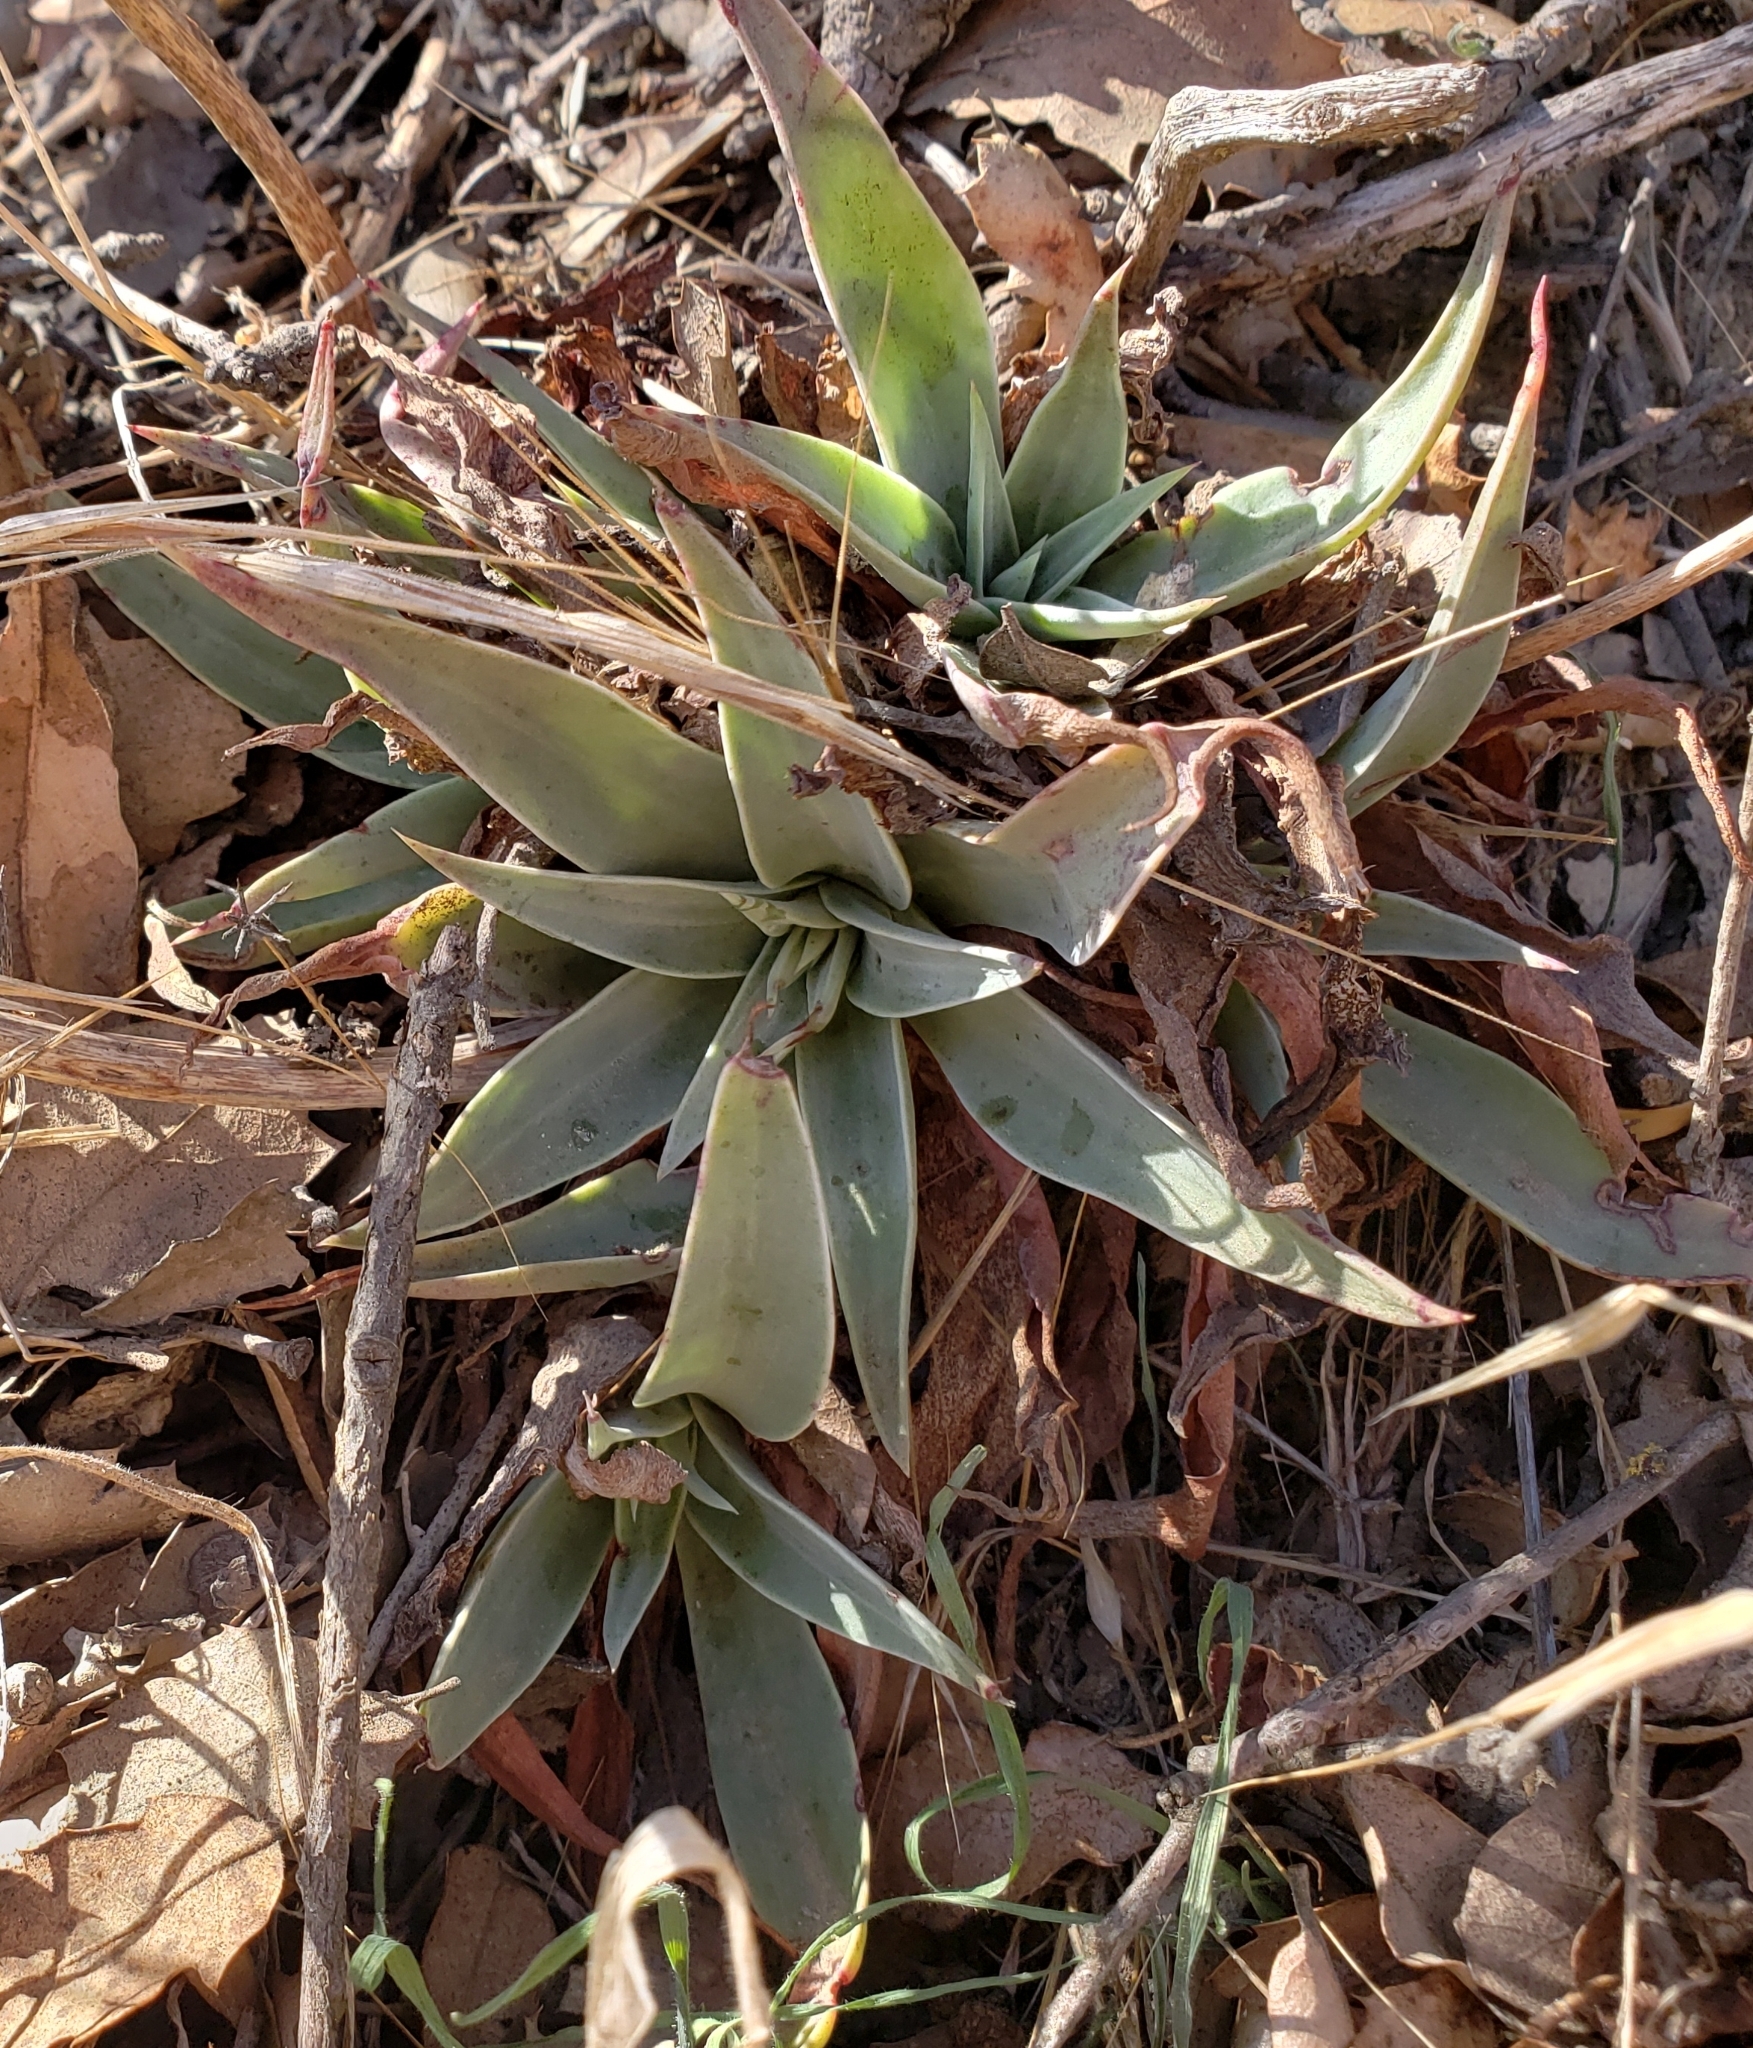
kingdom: Plantae
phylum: Tracheophyta
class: Magnoliopsida
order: Saxifragales
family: Crassulaceae
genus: Dudleya
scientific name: Dudleya lanceolata
